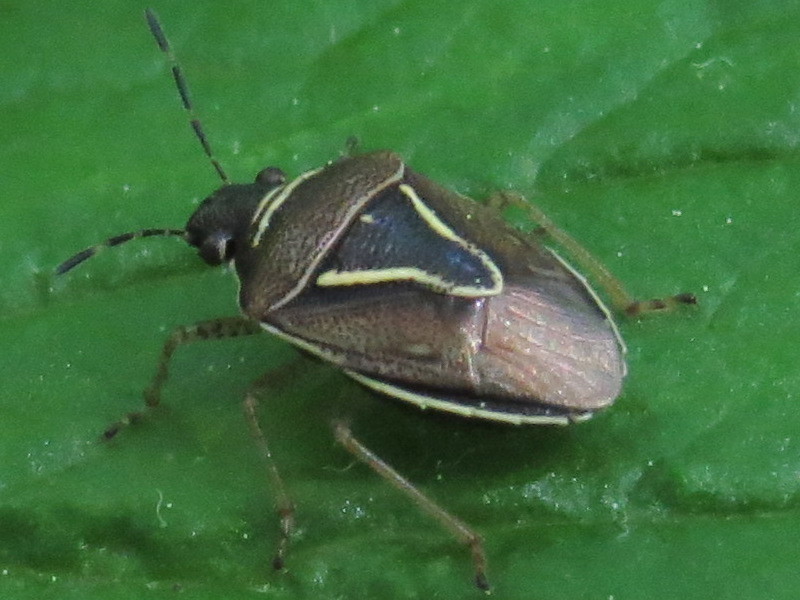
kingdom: Animalia
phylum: Arthropoda
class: Insecta
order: Hemiptera
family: Pentatomidae
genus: Mormidea
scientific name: Mormidea lugens
